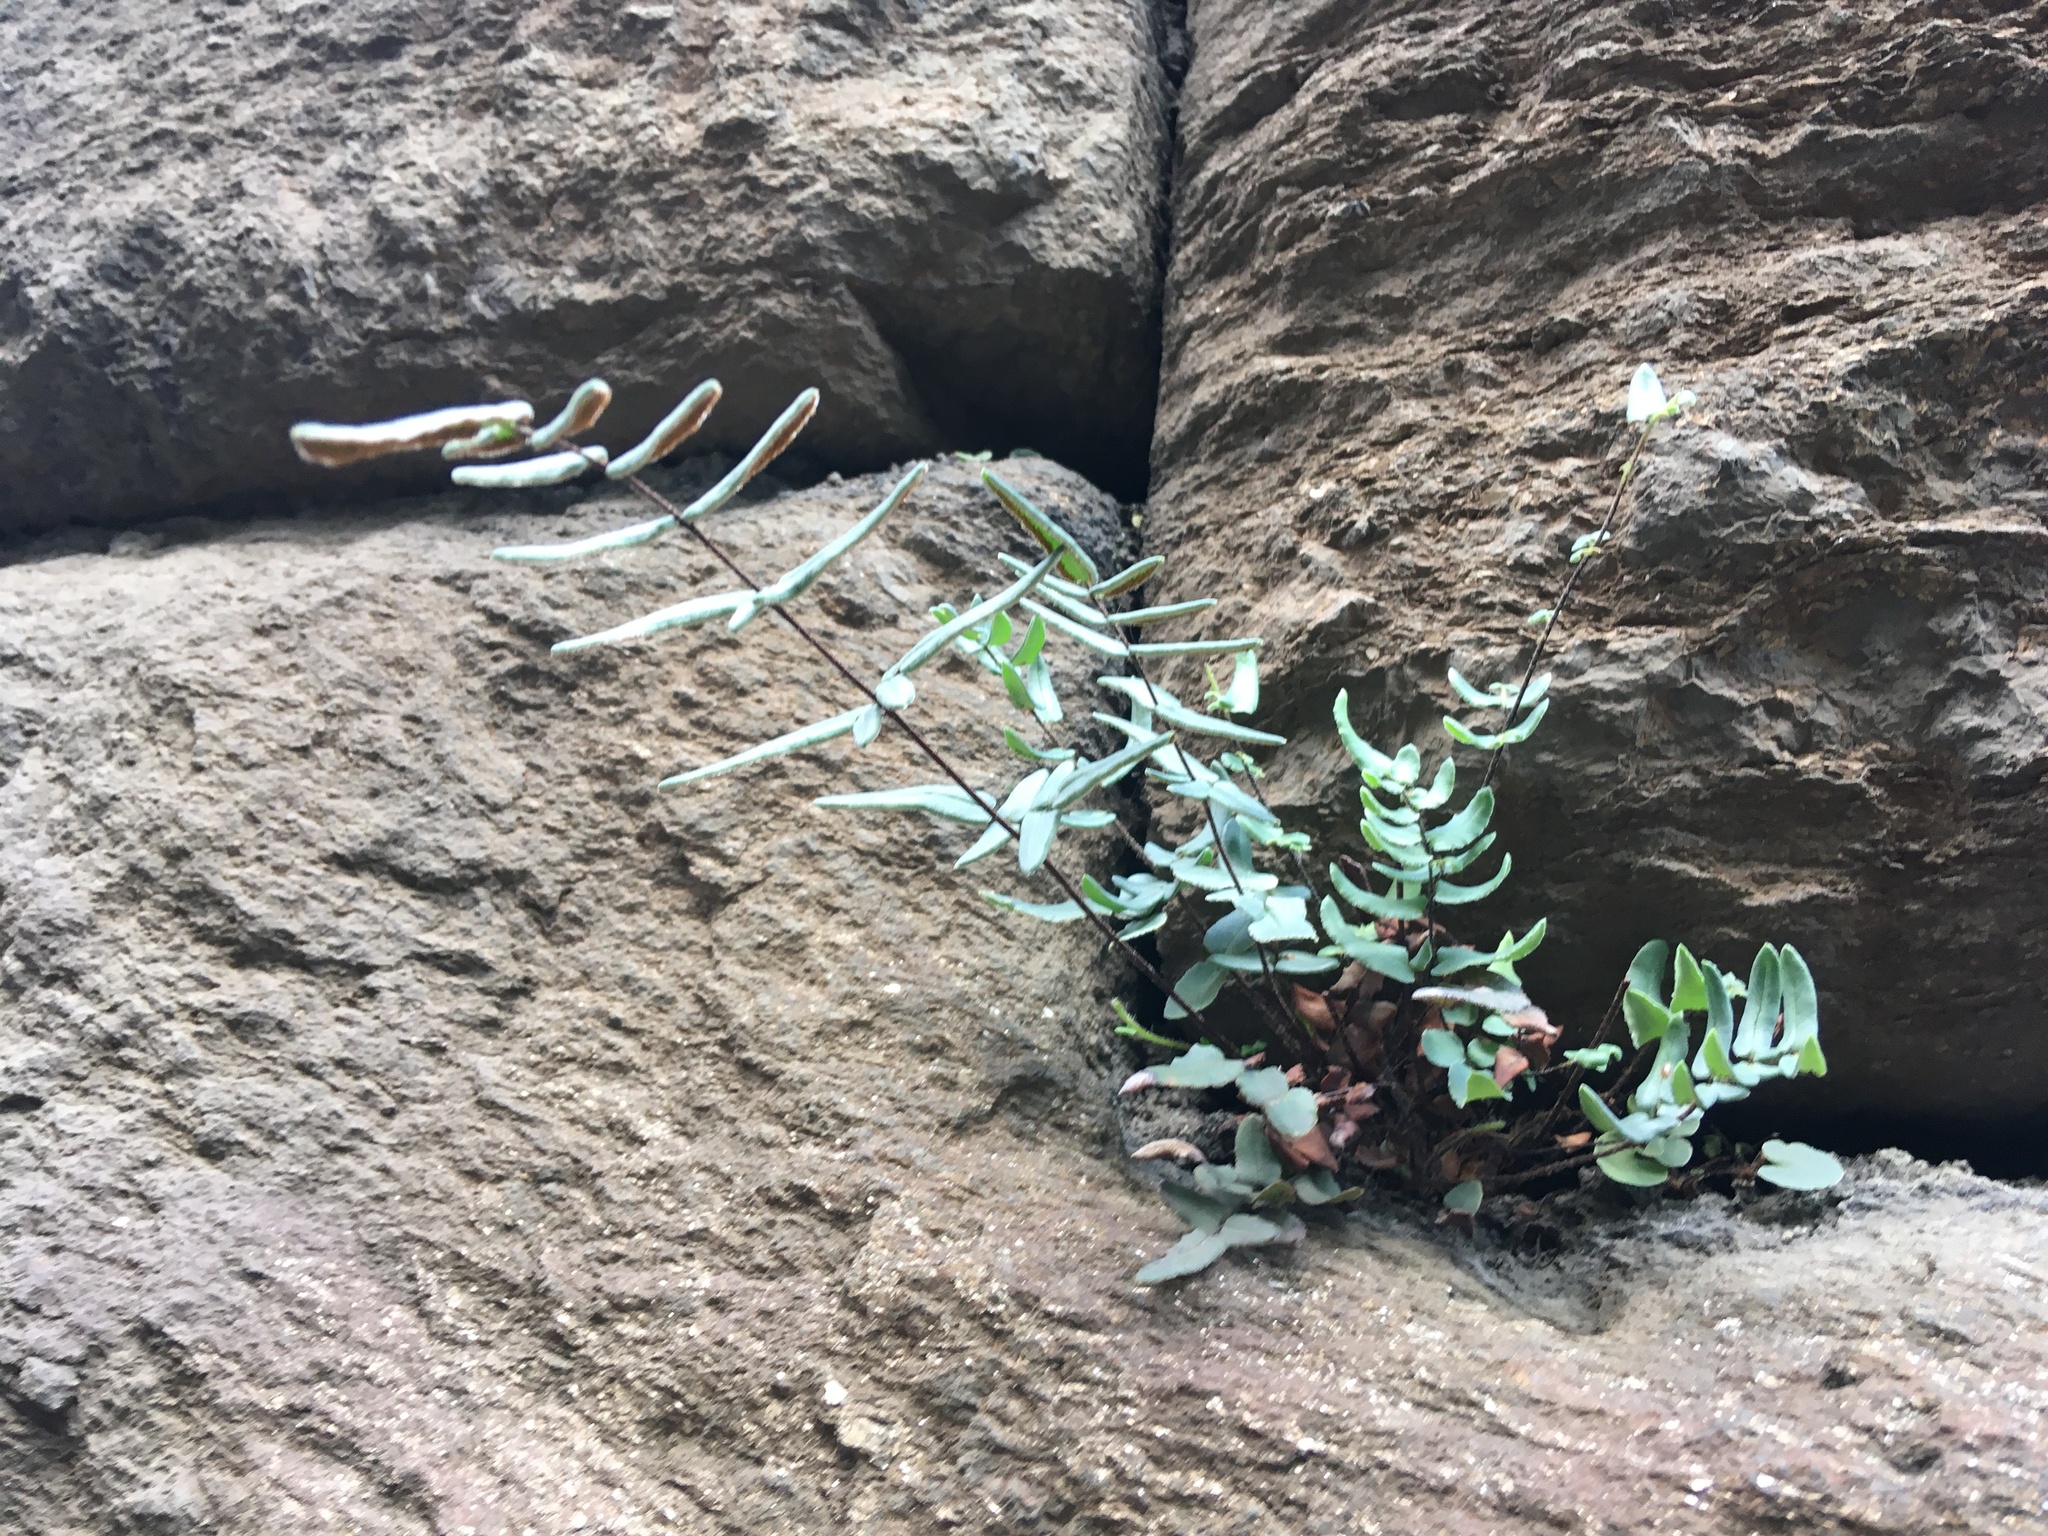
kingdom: Plantae
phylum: Tracheophyta
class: Polypodiopsida
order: Polypodiales
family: Pteridaceae
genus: Pellaea
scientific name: Pellaea atropurpurea
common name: Hairy cliffbrake
